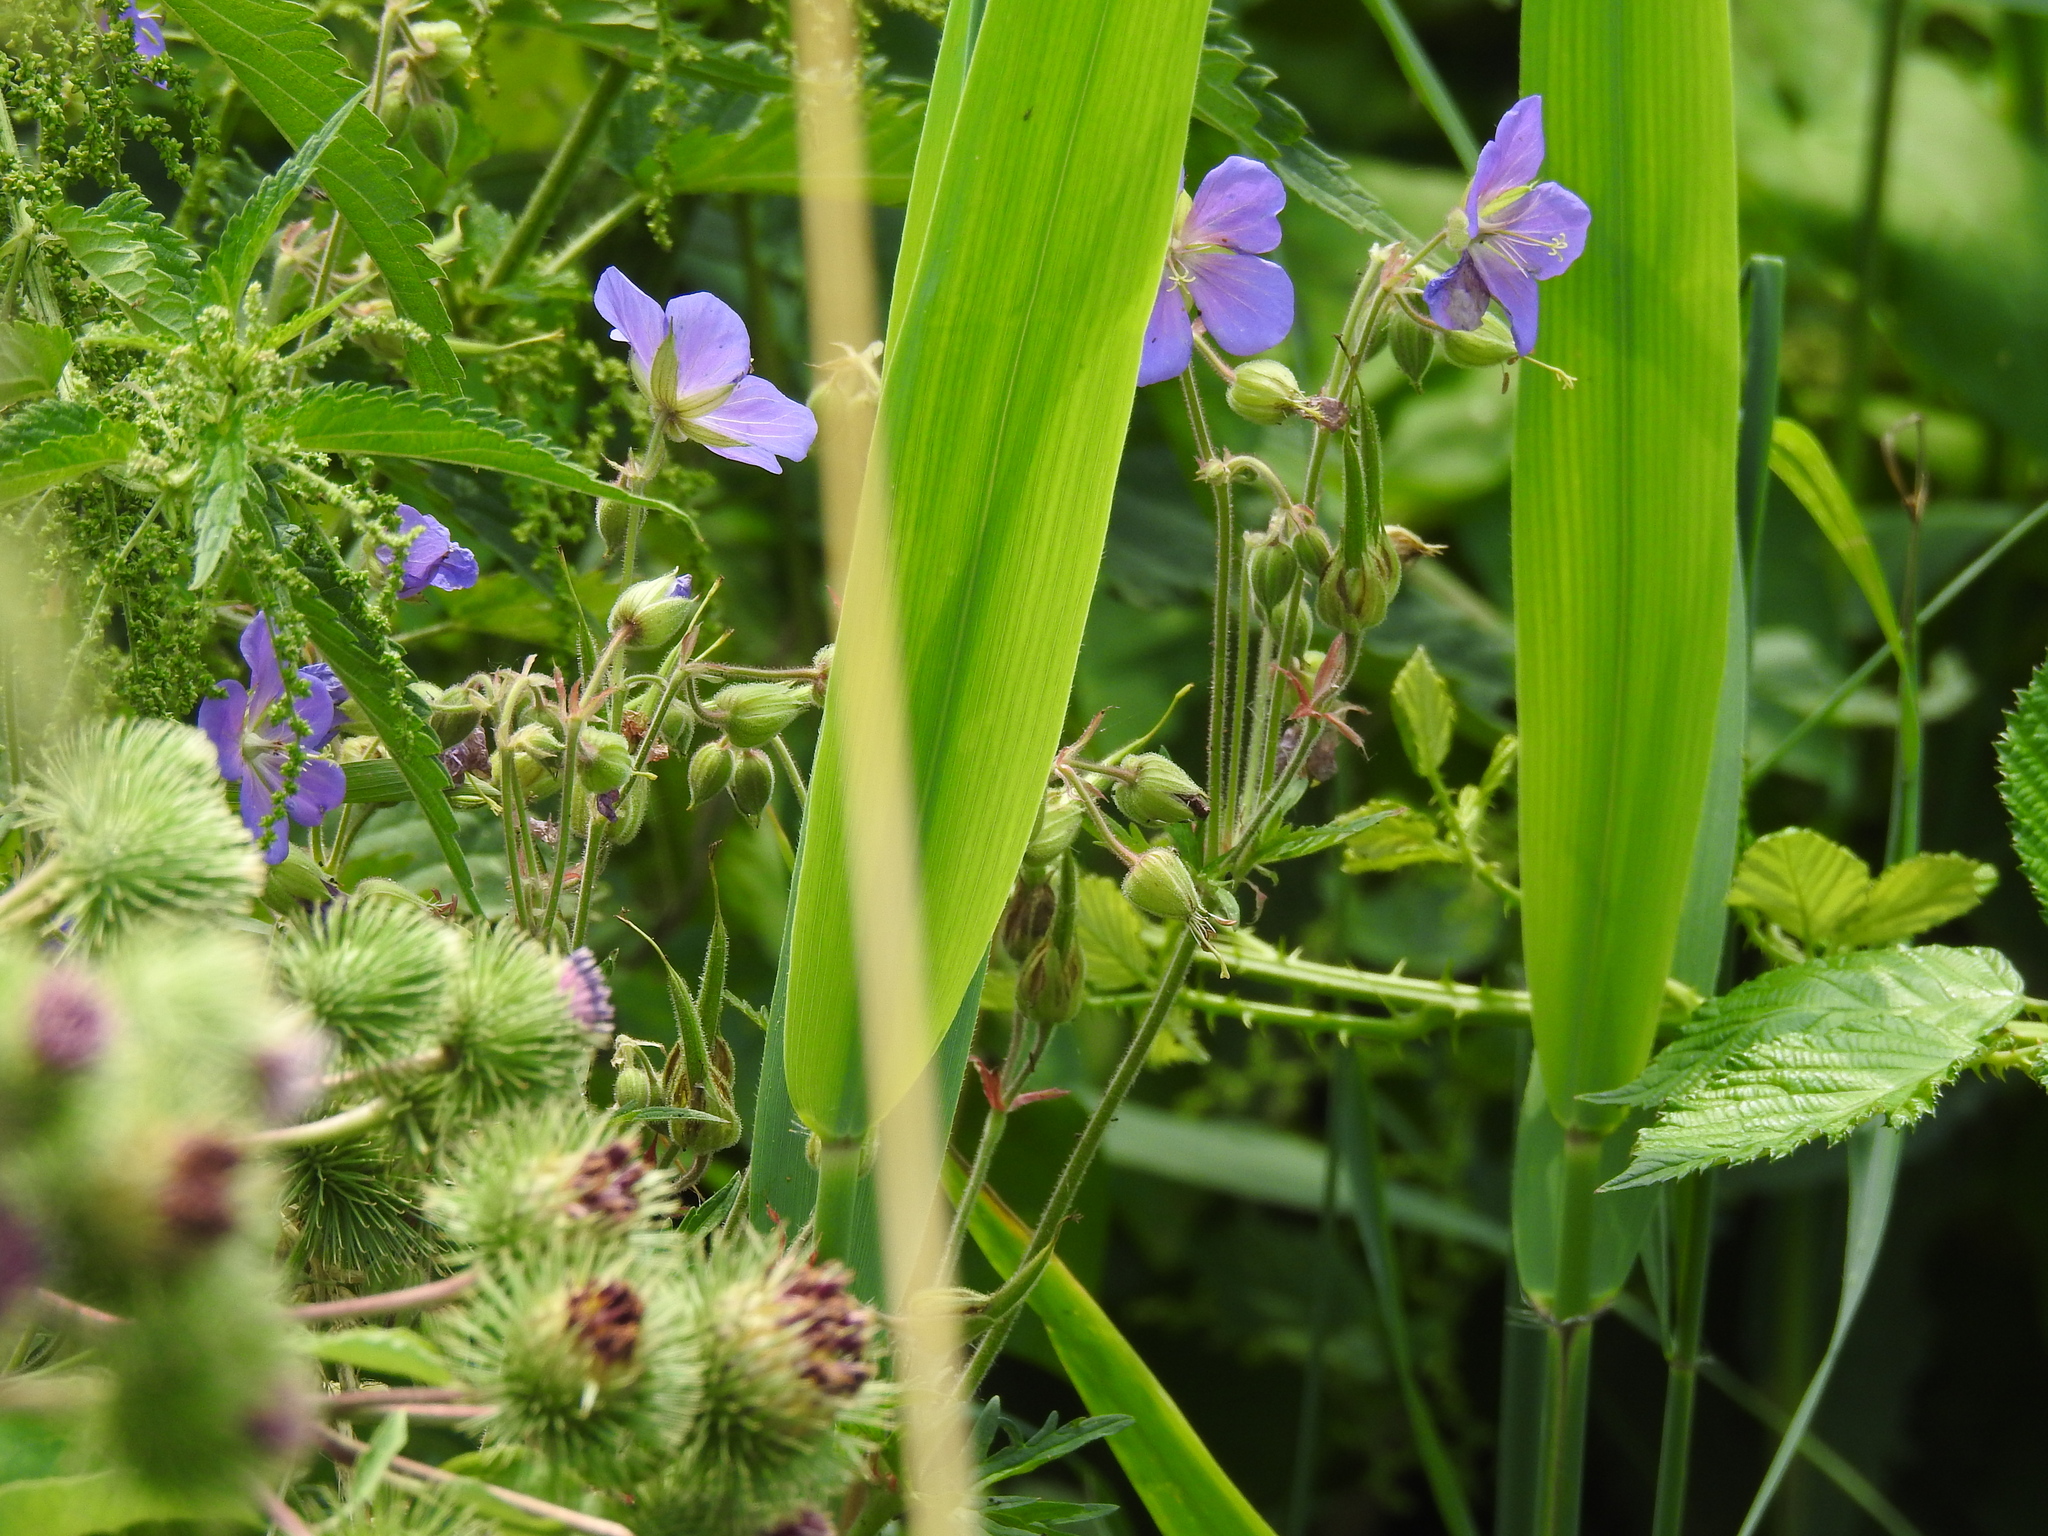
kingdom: Plantae
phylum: Tracheophyta
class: Magnoliopsida
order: Geraniales
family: Geraniaceae
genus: Geranium
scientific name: Geranium pratense
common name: Meadow crane's-bill
